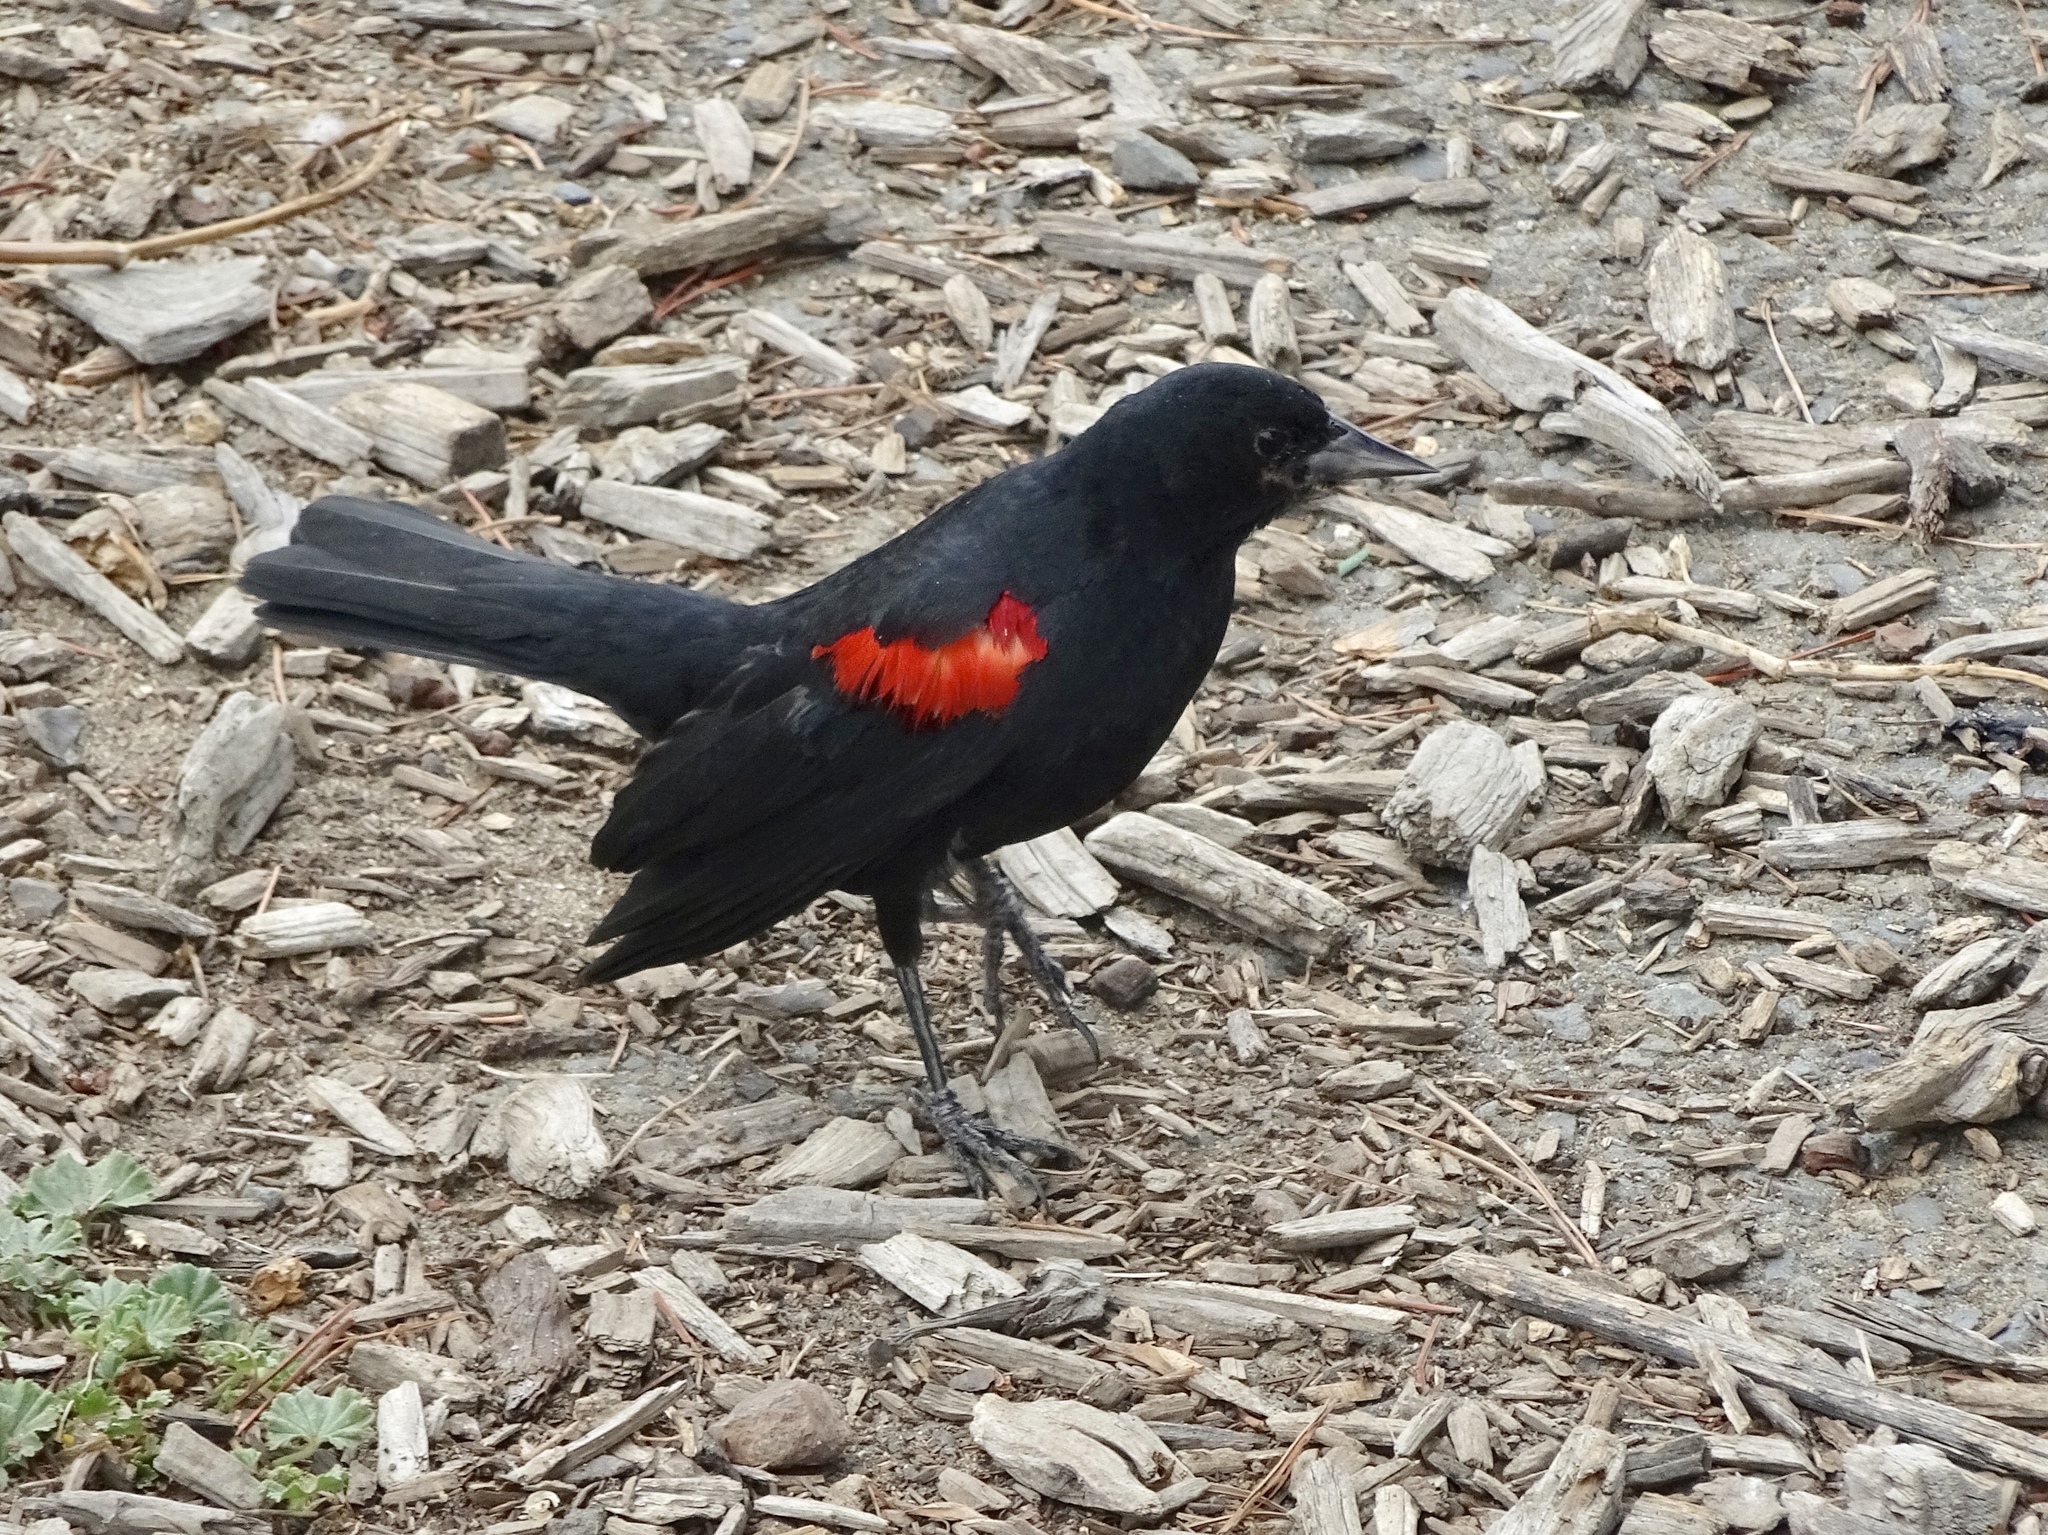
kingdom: Animalia
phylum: Chordata
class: Aves
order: Passeriformes
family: Icteridae
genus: Agelaius
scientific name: Agelaius phoeniceus
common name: Red-winged blackbird
